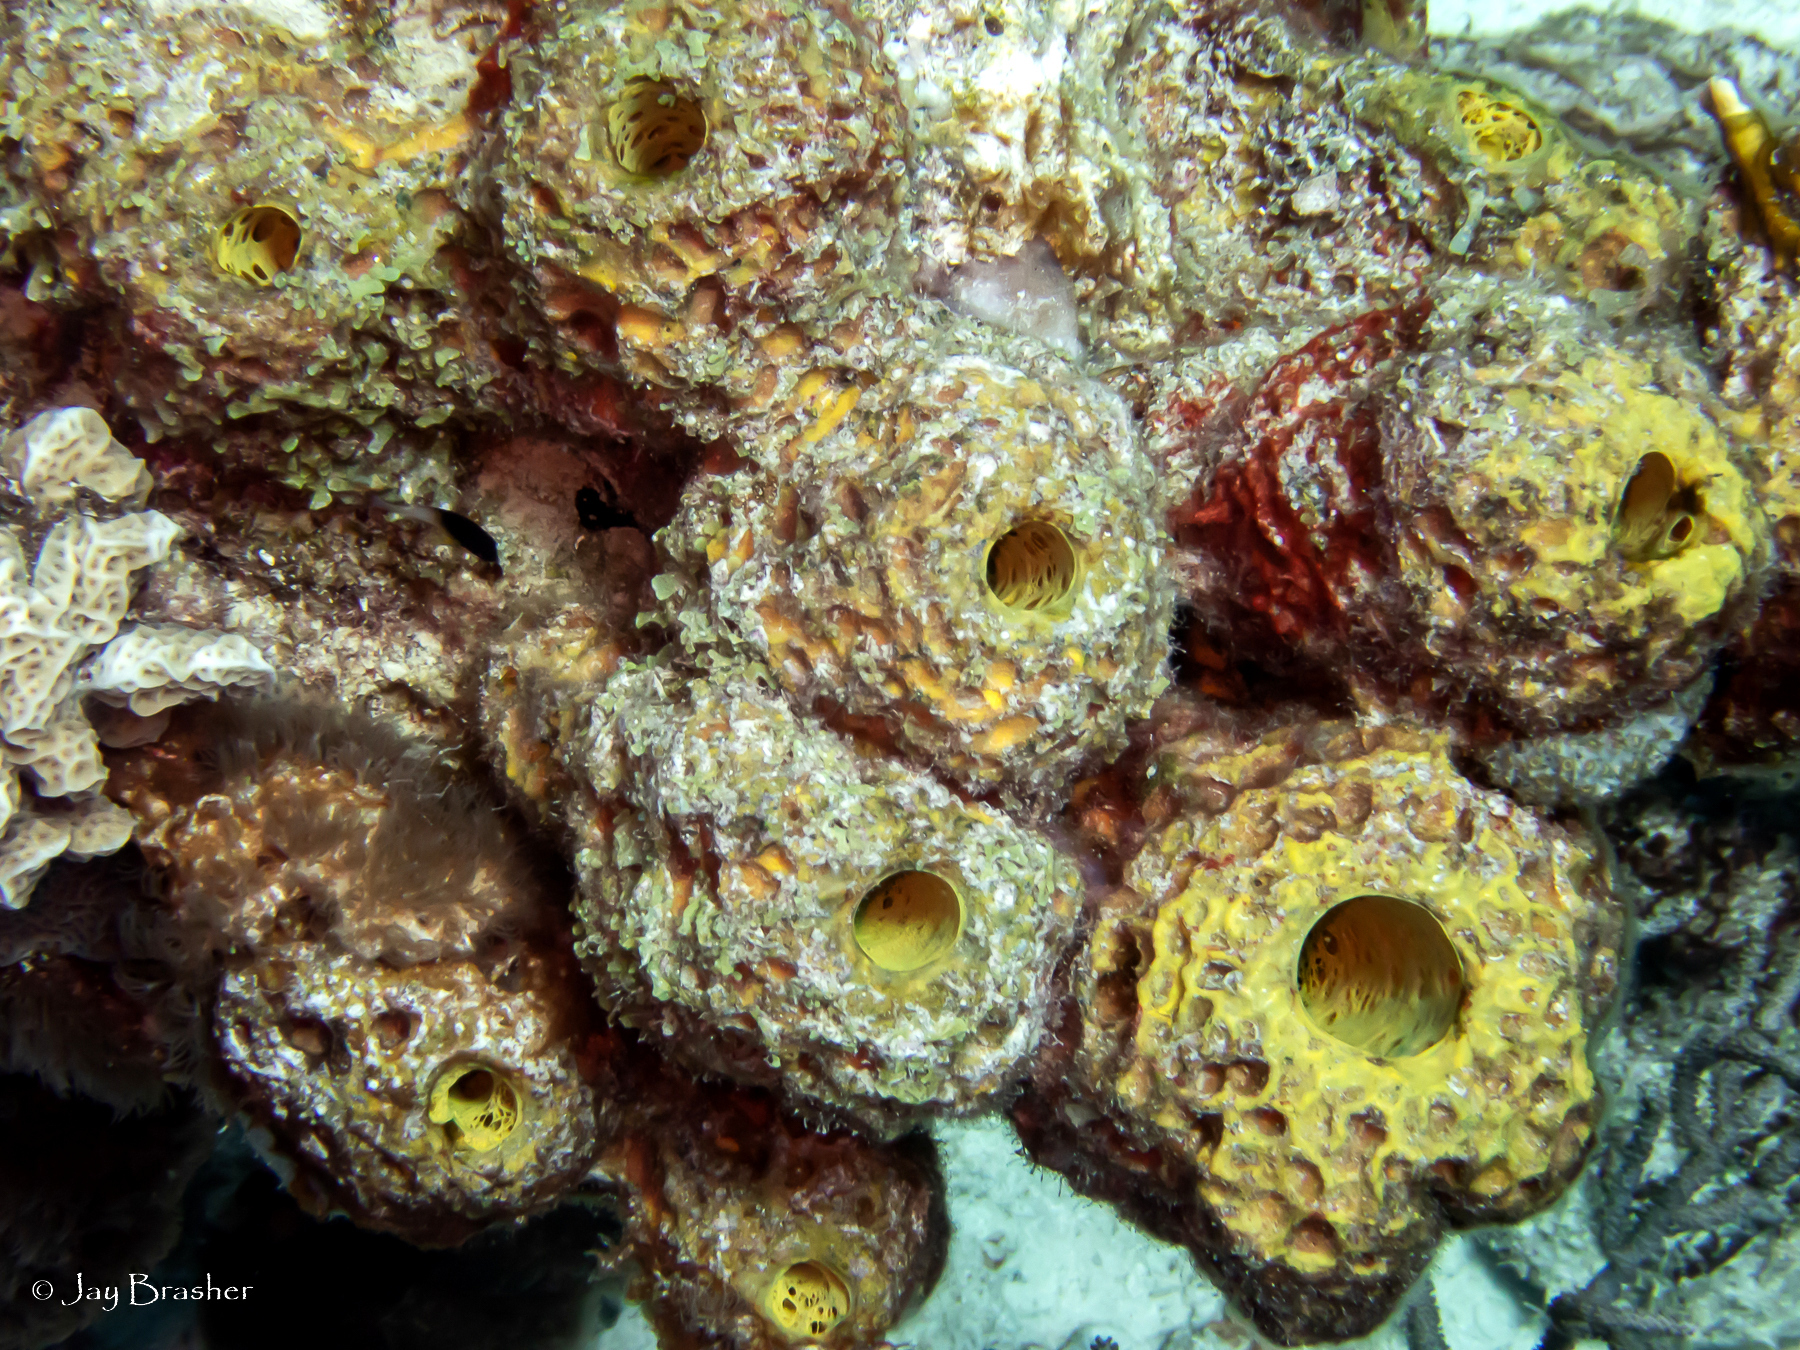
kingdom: Animalia
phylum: Porifera
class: Demospongiae
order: Verongiida
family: Aplysinidae
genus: Verongula
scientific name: Verongula rigida
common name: Pitted sponge
